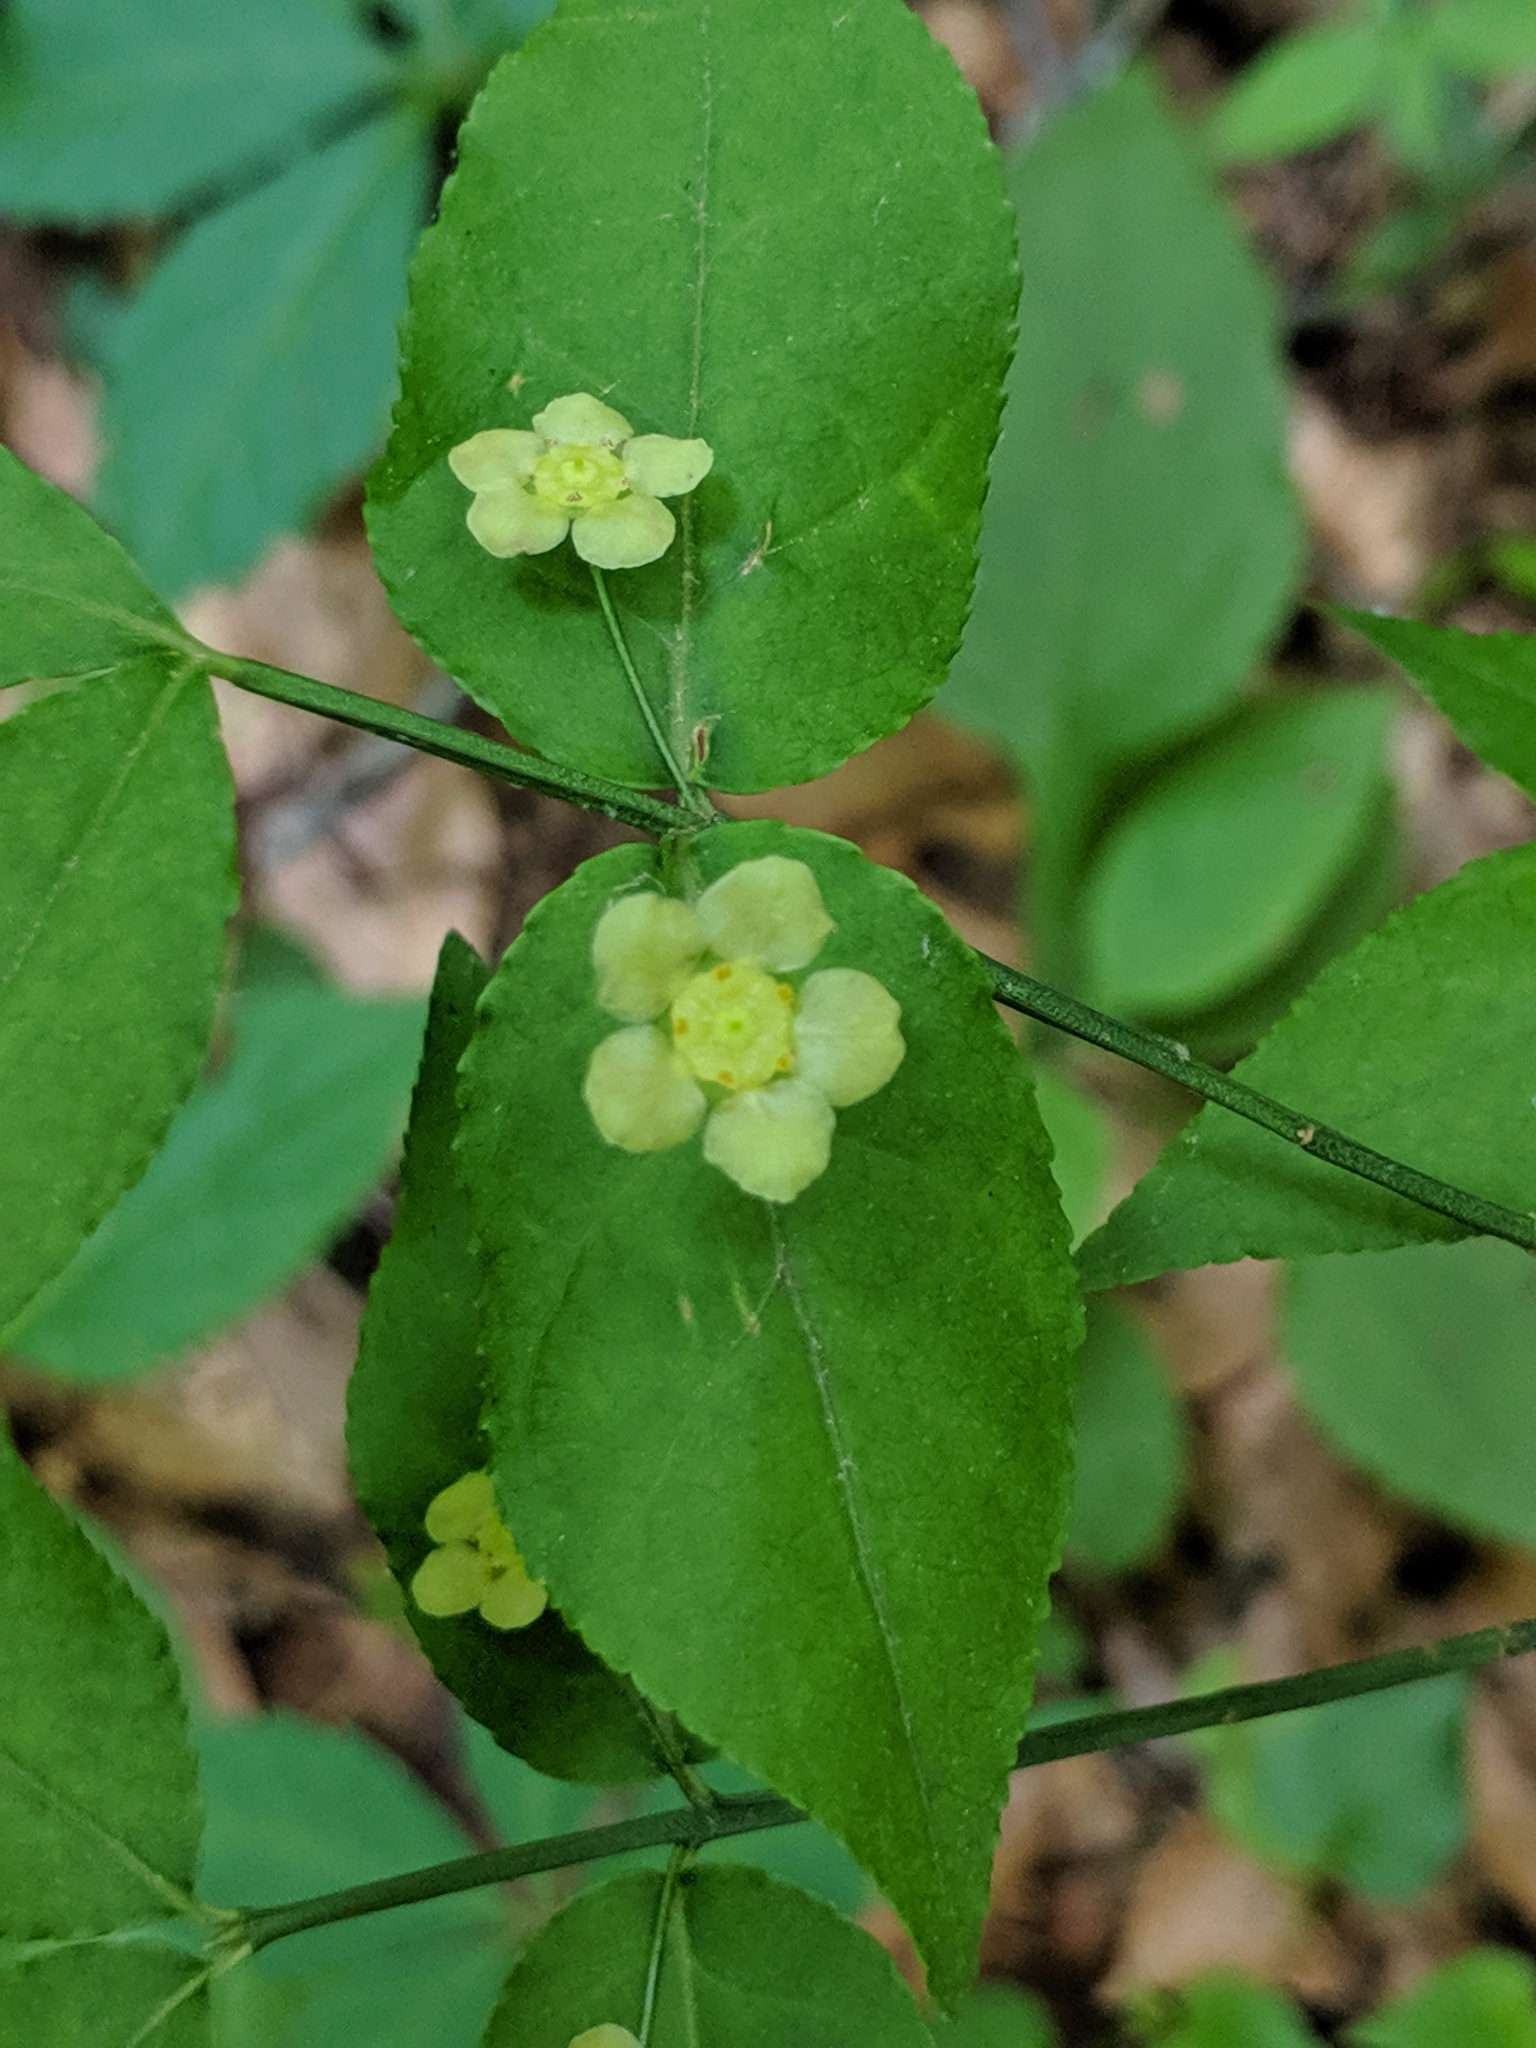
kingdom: Plantae
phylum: Tracheophyta
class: Magnoliopsida
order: Celastrales
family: Celastraceae
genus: Euonymus
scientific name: Euonymus americanus
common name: Bursting-heart
